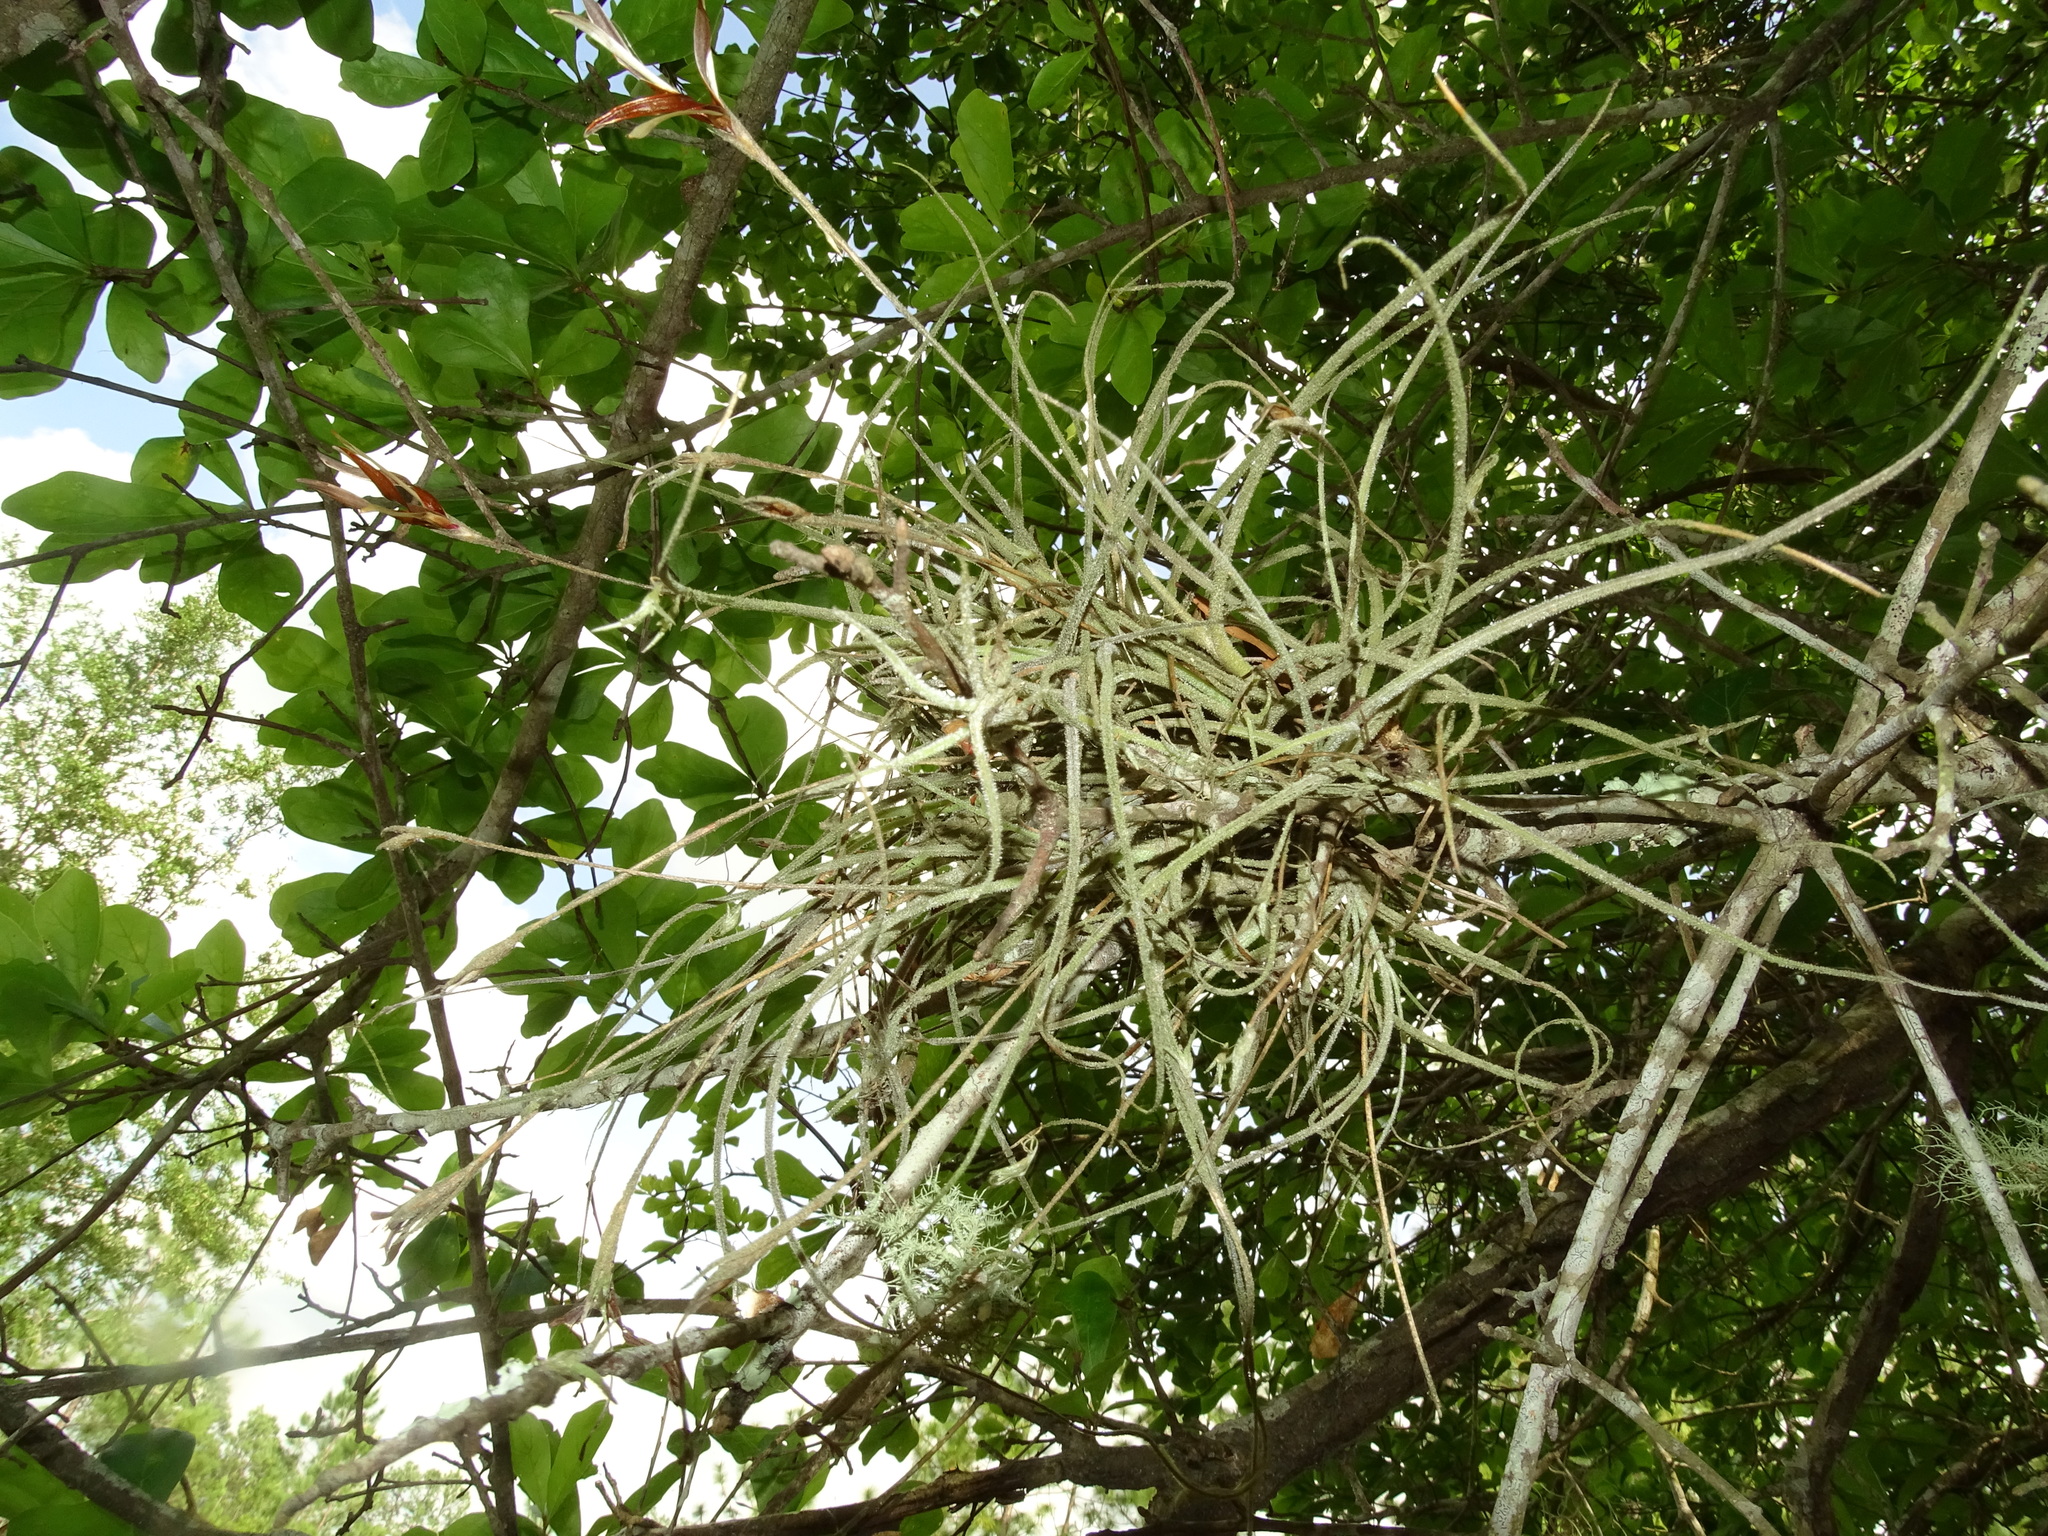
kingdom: Plantae
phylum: Tracheophyta
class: Liliopsida
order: Poales
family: Bromeliaceae
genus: Tillandsia
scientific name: Tillandsia recurvata
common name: Small ballmoss
